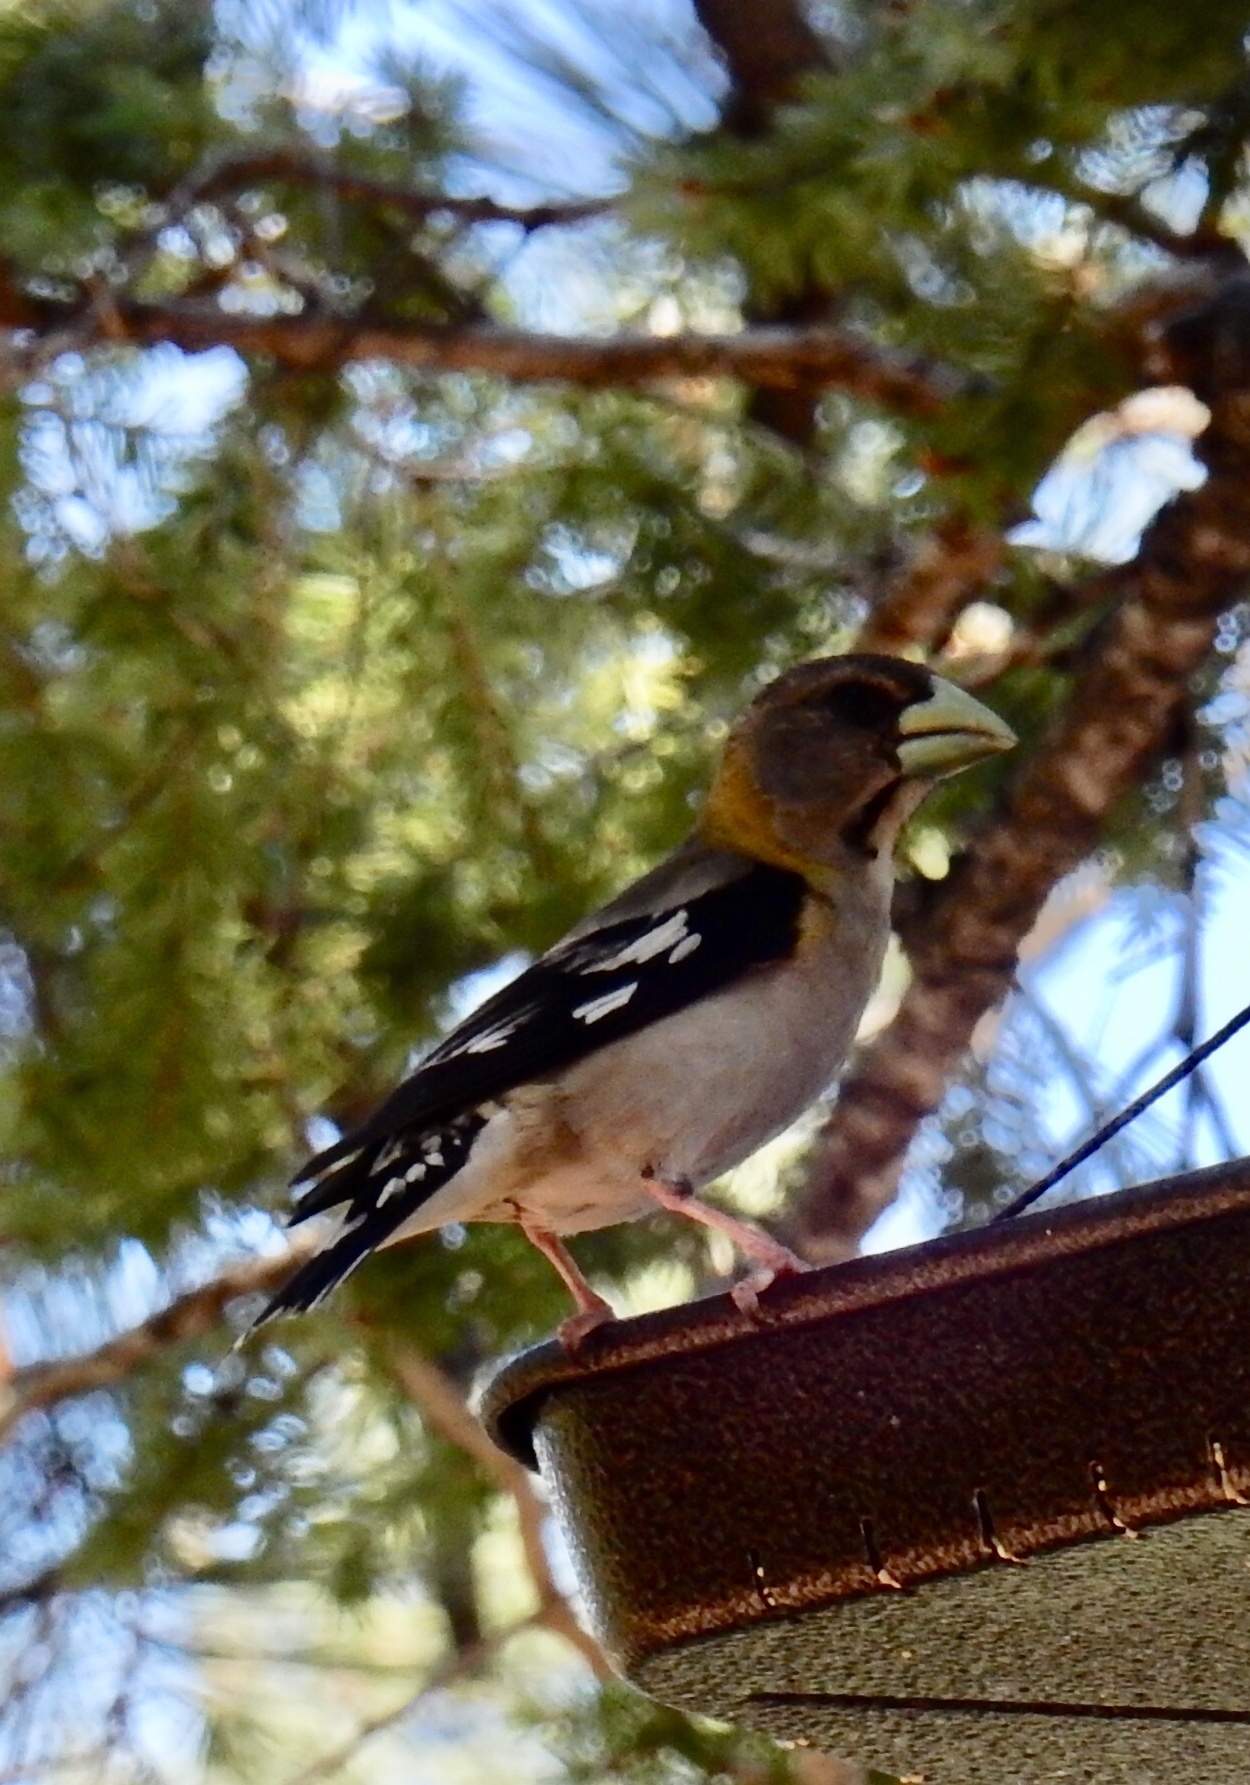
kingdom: Animalia
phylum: Chordata
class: Aves
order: Passeriformes
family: Fringillidae
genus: Hesperiphona
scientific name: Hesperiphona vespertina
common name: Evening grosbeak
